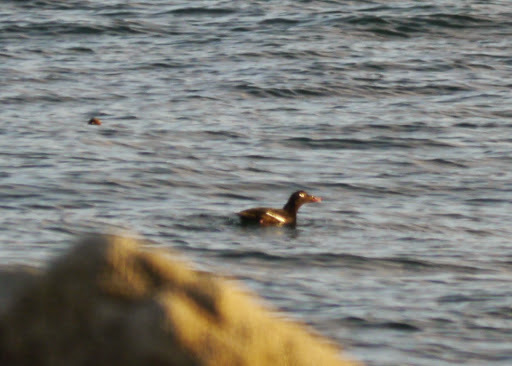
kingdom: Animalia
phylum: Chordata
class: Aves
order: Anseriformes
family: Anatidae
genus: Melanitta
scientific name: Melanitta deglandi
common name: White-winged scoter
